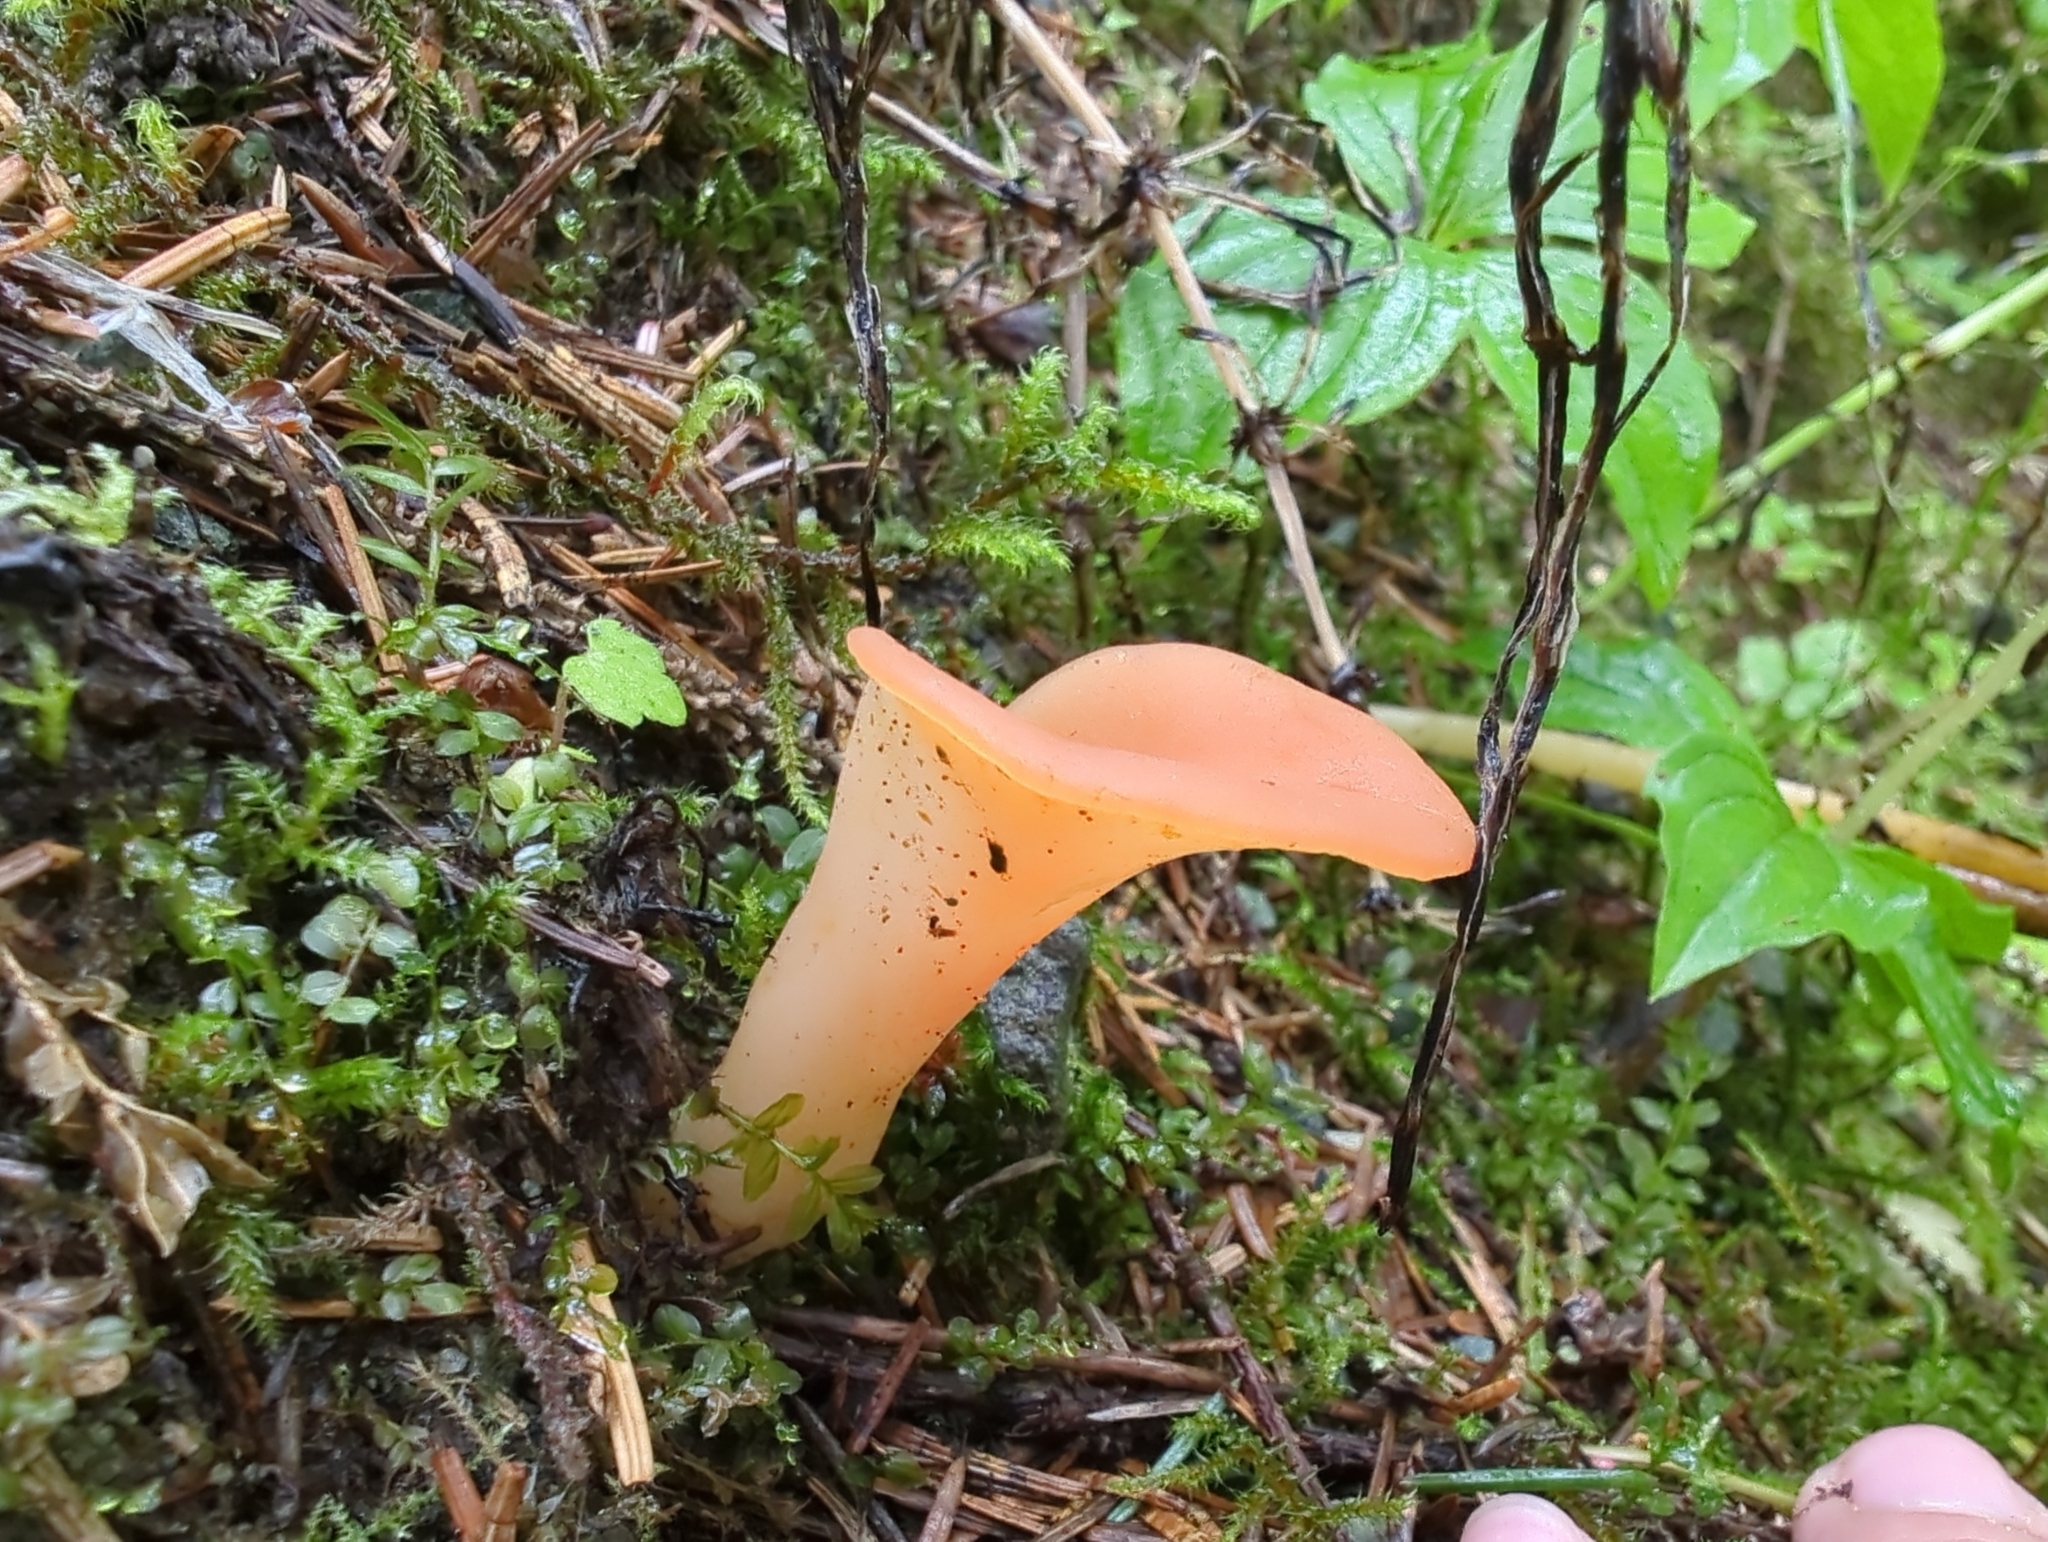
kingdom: Fungi
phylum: Basidiomycota
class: Agaricomycetes
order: Auriculariales
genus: Guepinia
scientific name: Guepinia helvelloides
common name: Salmon salad
